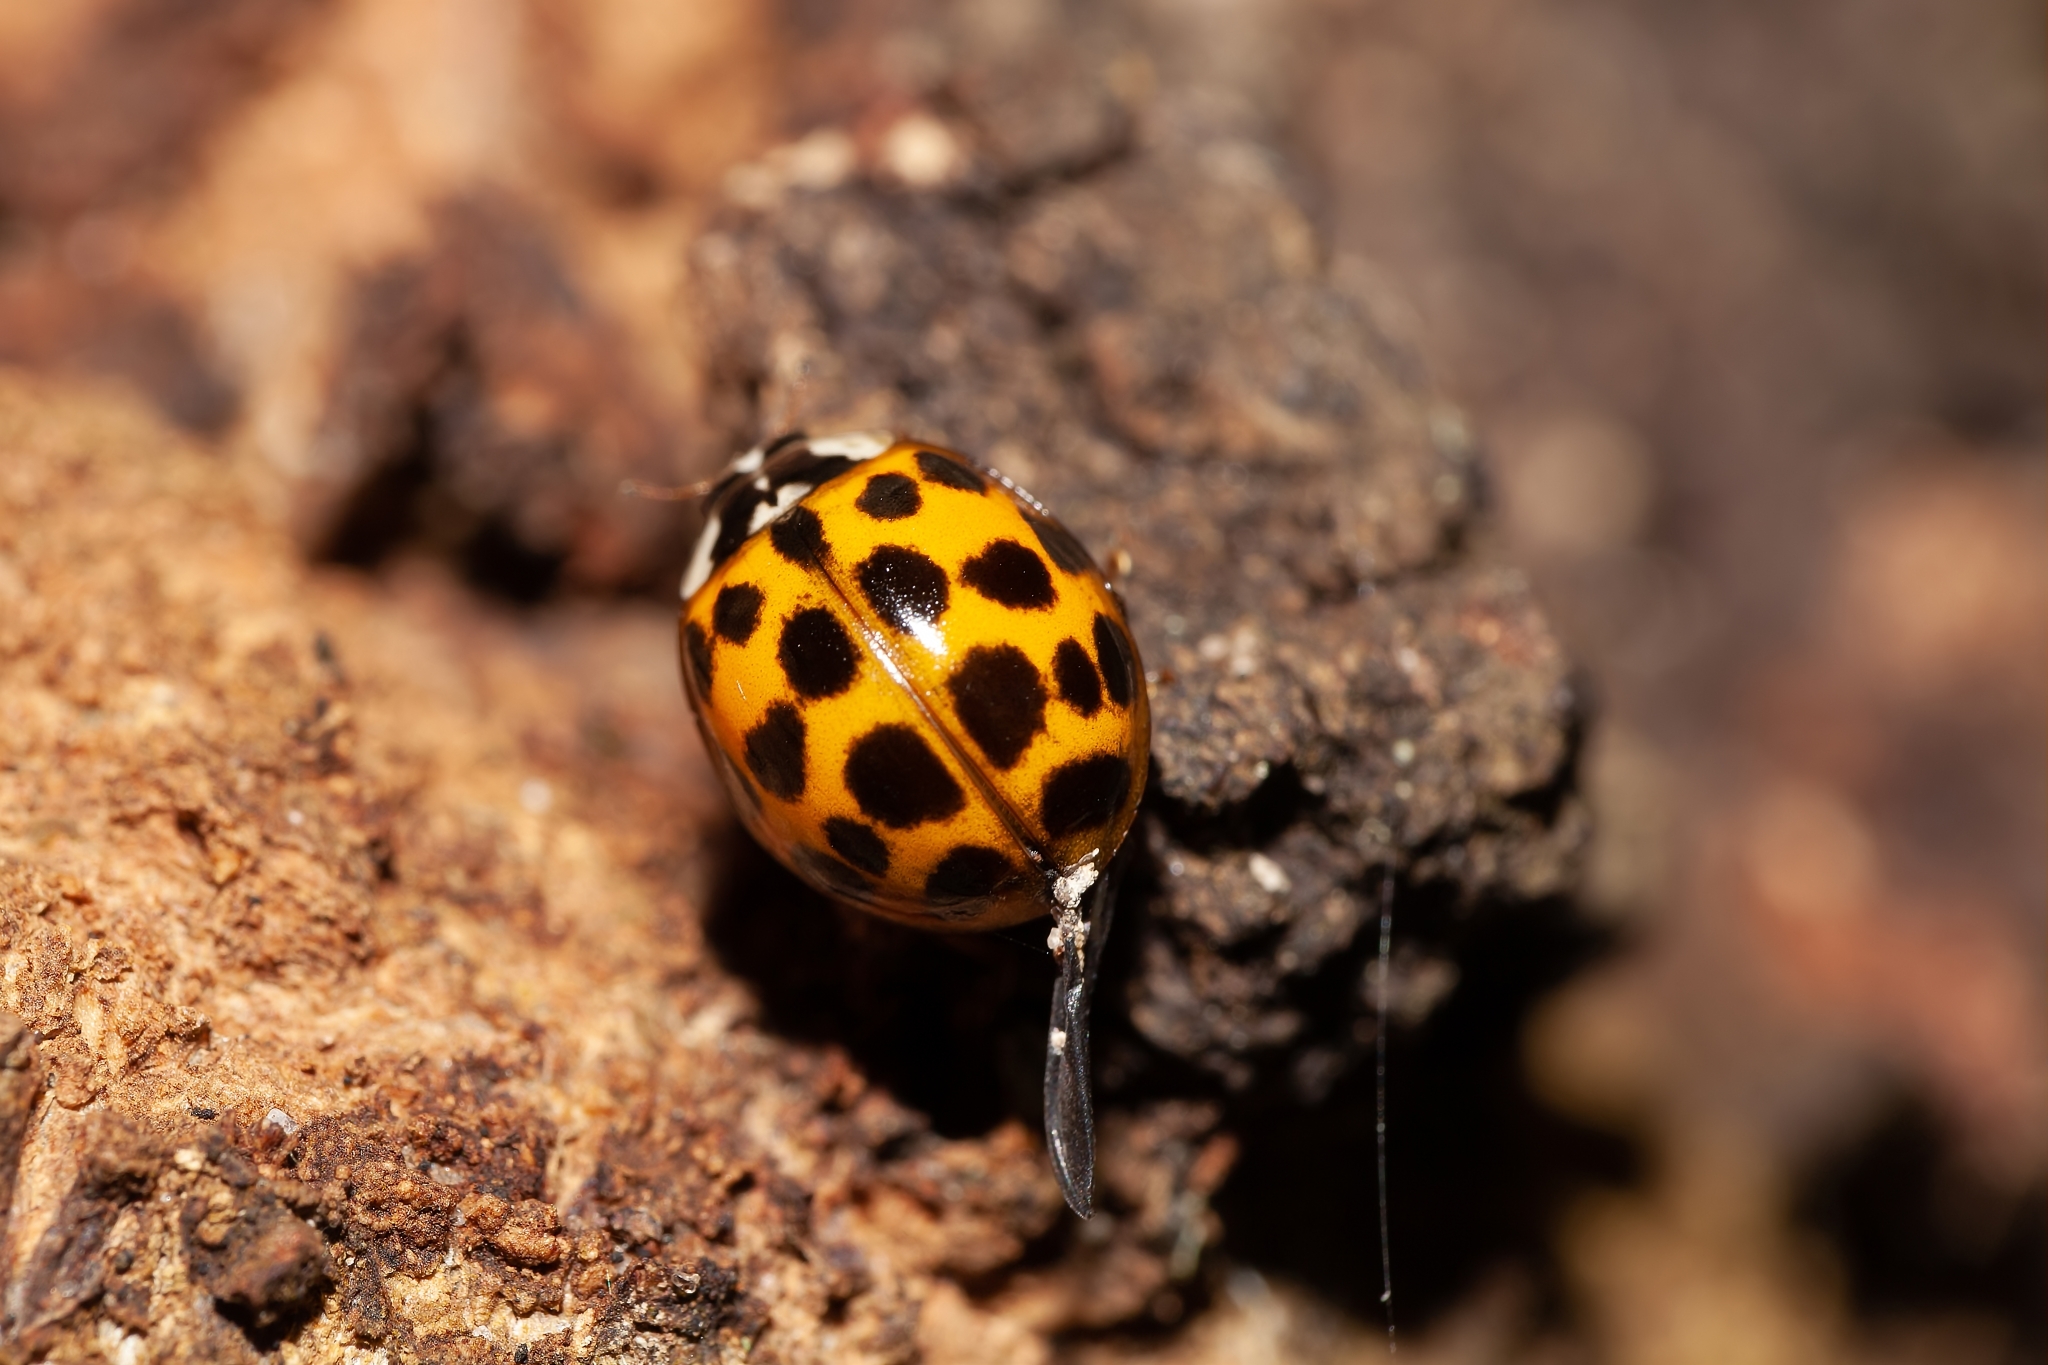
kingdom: Animalia
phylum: Arthropoda
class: Insecta
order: Coleoptera
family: Coccinellidae
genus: Harmonia
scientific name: Harmonia axyridis
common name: Harlequin ladybird
